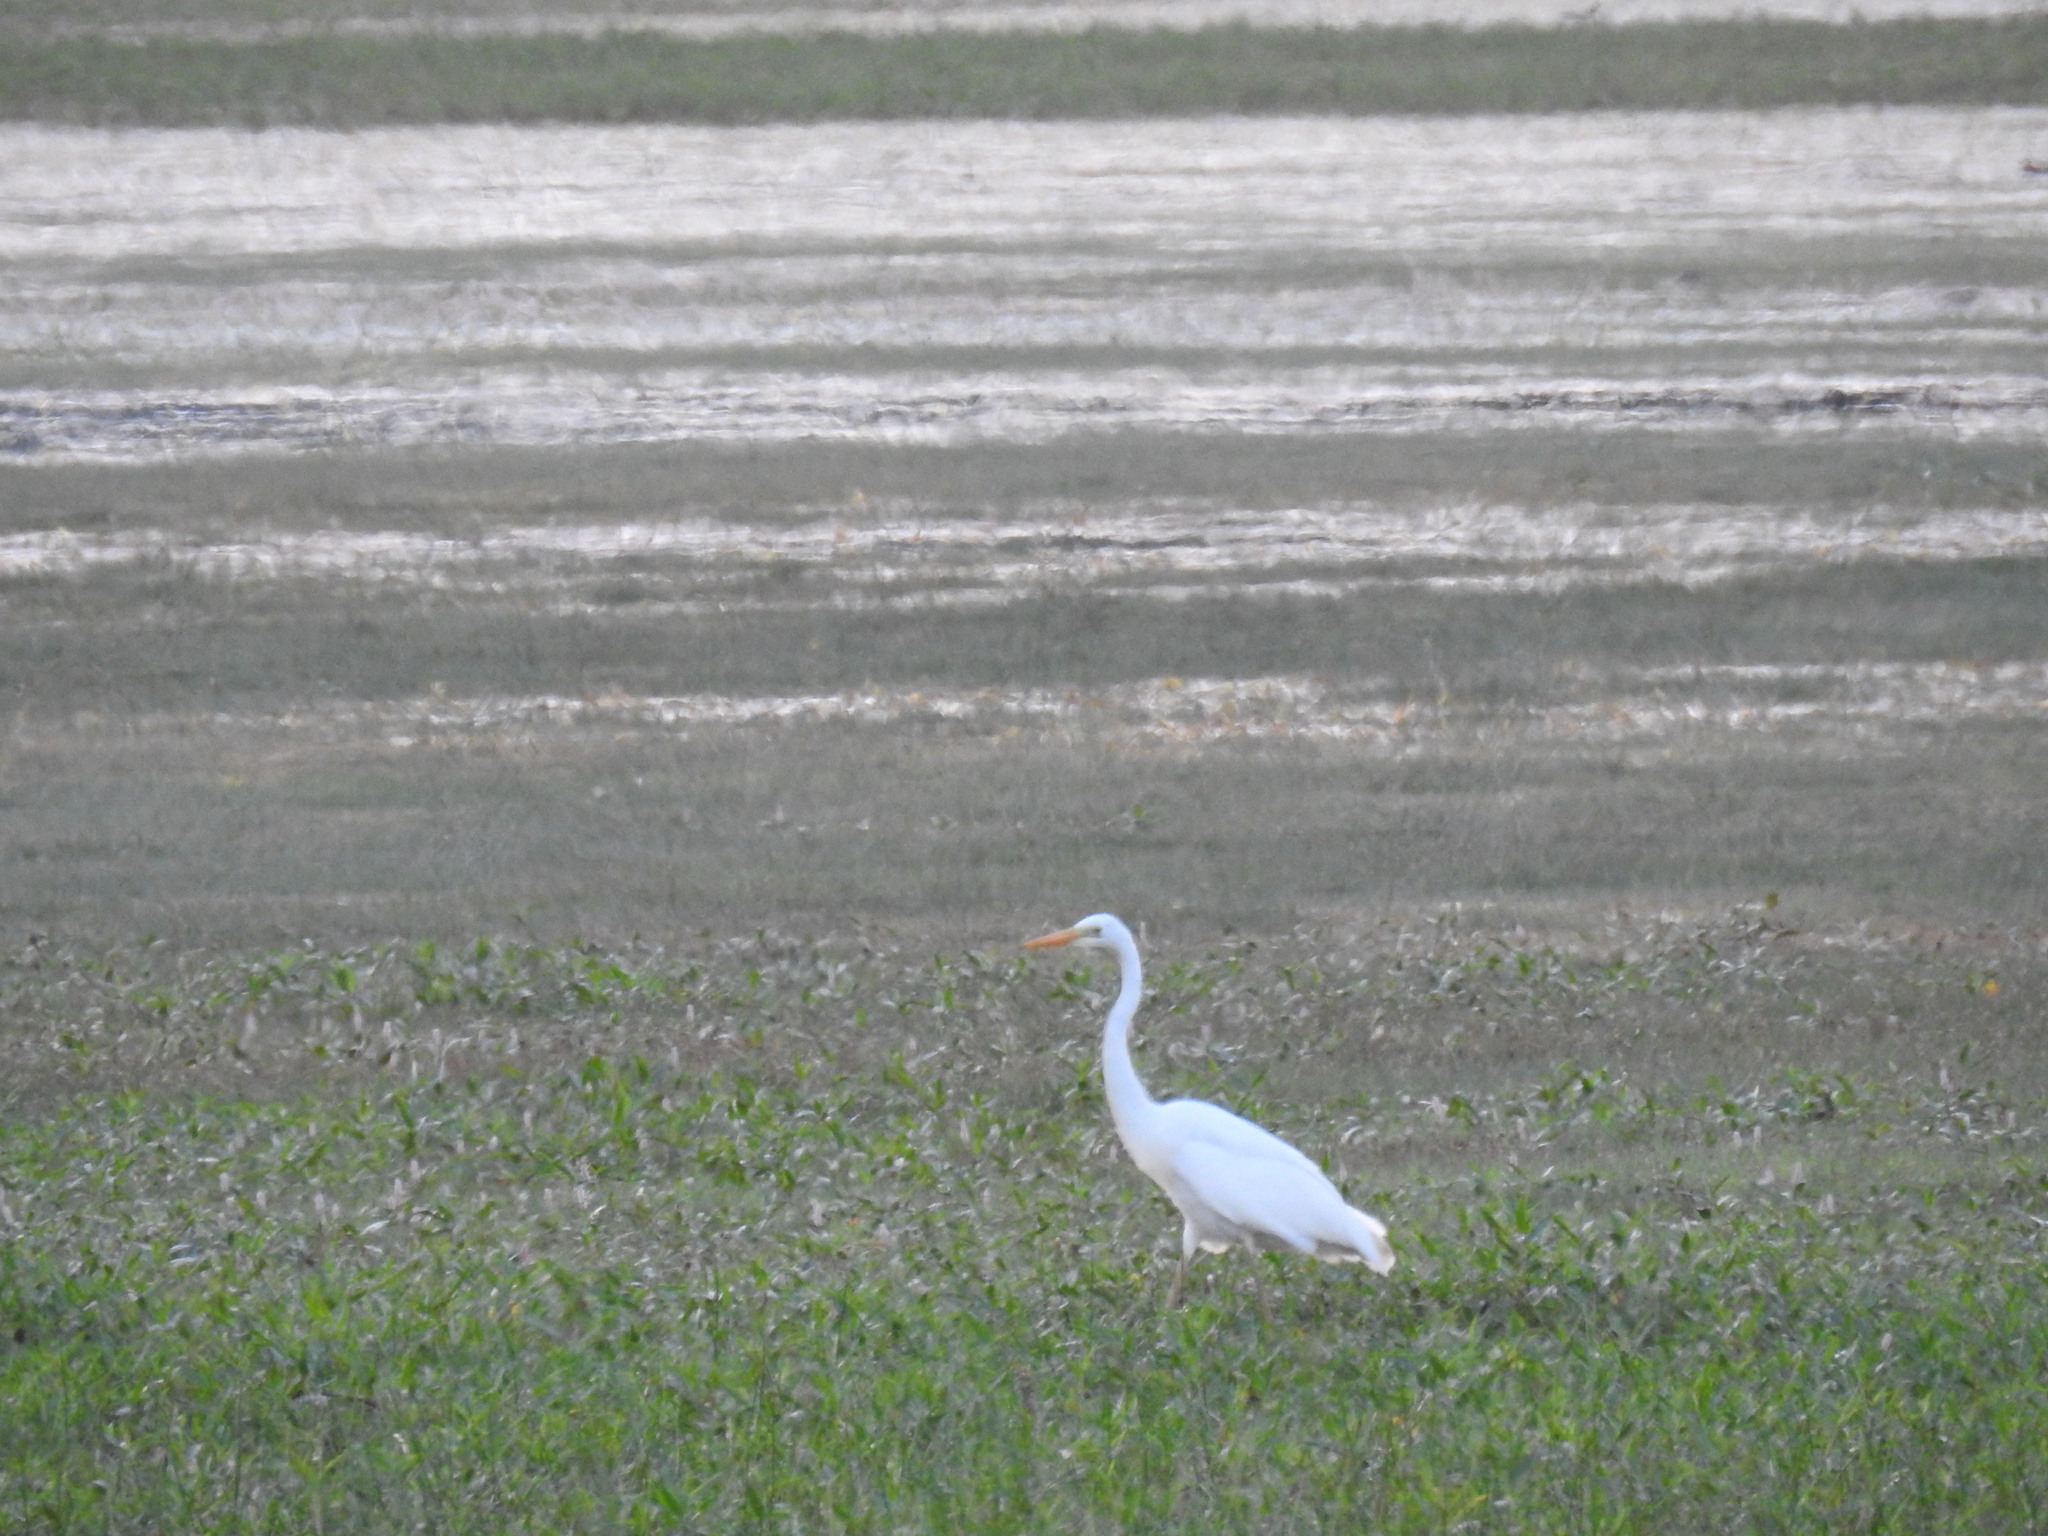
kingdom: Animalia
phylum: Chordata
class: Aves
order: Pelecaniformes
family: Ardeidae
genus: Ardea
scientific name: Ardea alba
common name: Great egret
